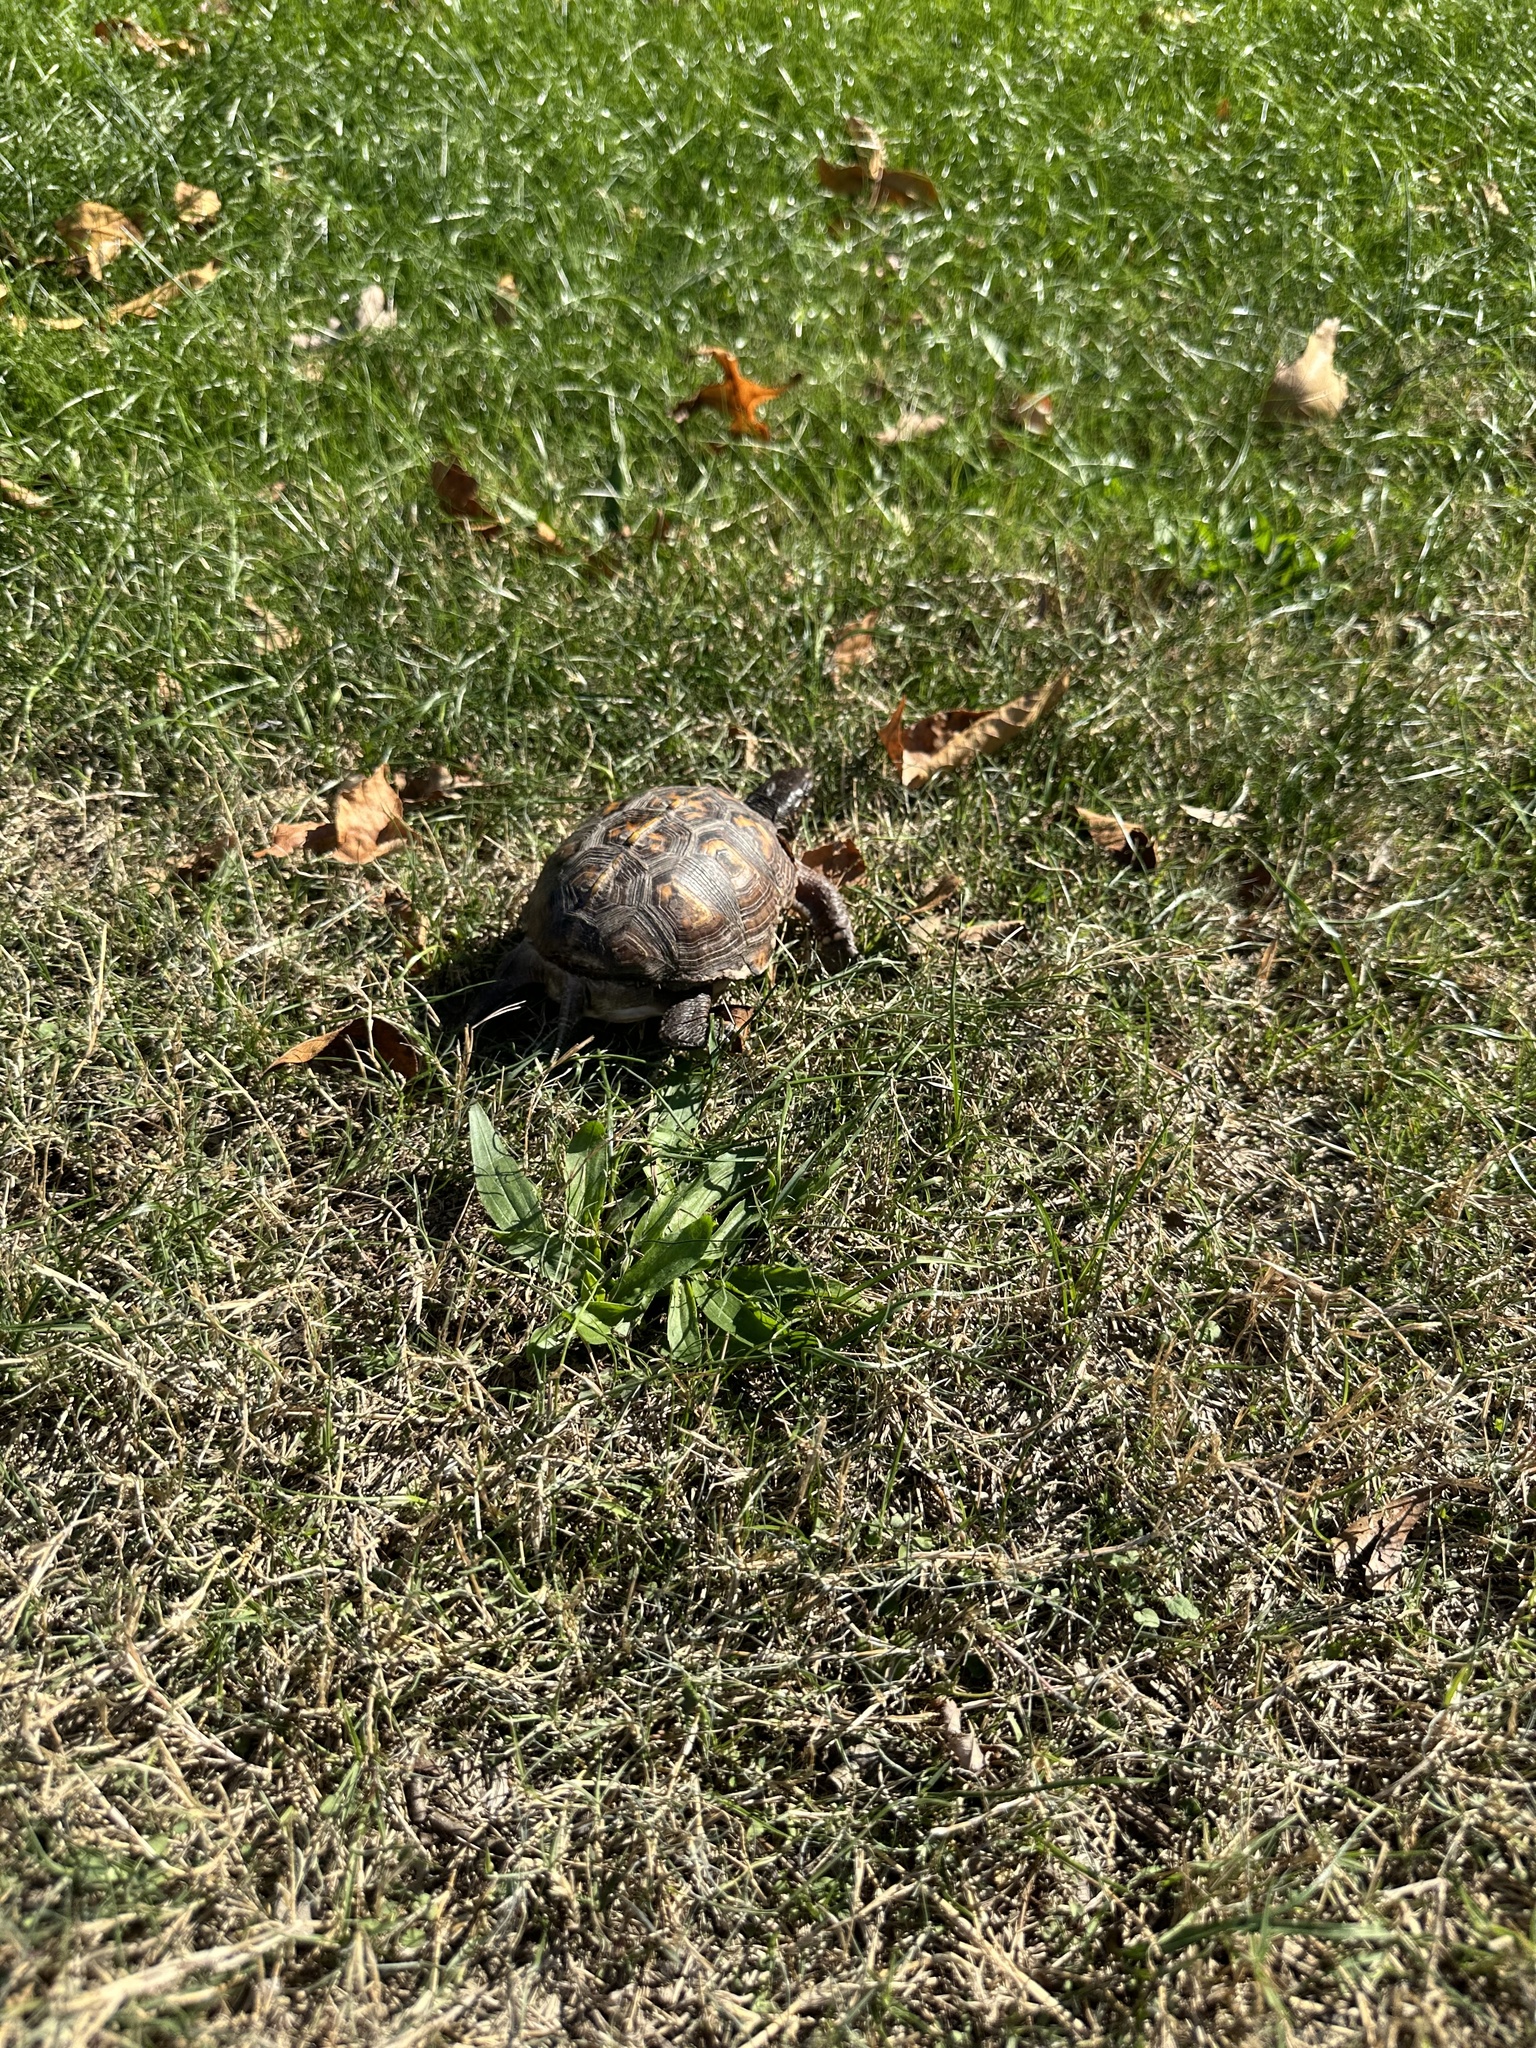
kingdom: Animalia
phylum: Chordata
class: Testudines
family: Emydidae
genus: Terrapene
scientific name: Terrapene carolina
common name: Common box turtle
